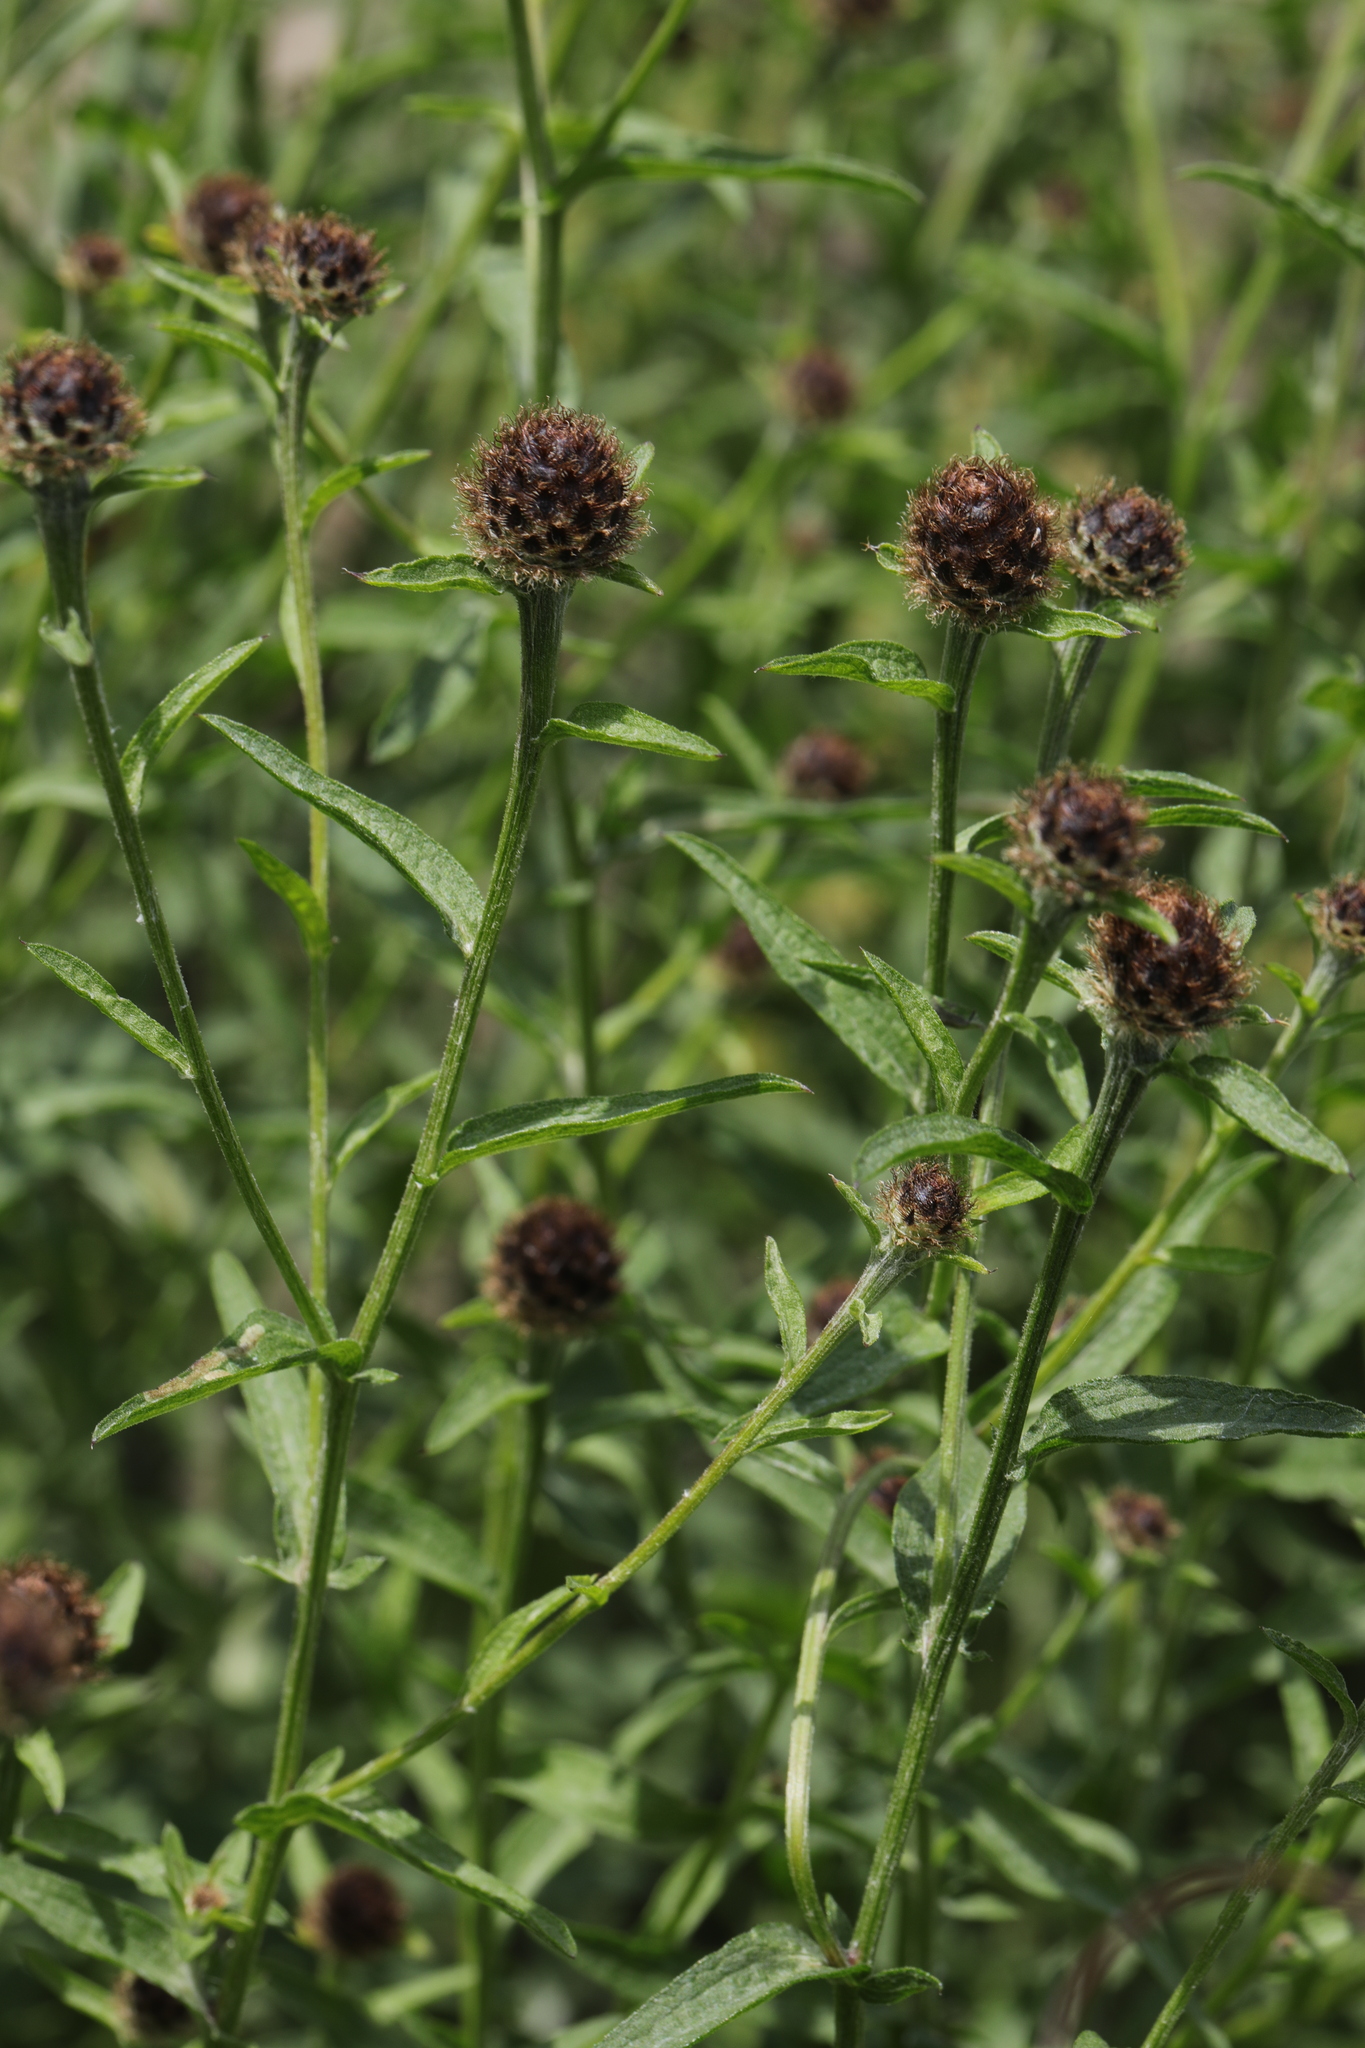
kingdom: Plantae
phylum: Tracheophyta
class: Magnoliopsida
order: Asterales
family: Asteraceae
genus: Centaurea
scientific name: Centaurea nigra
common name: Lesser knapweed
